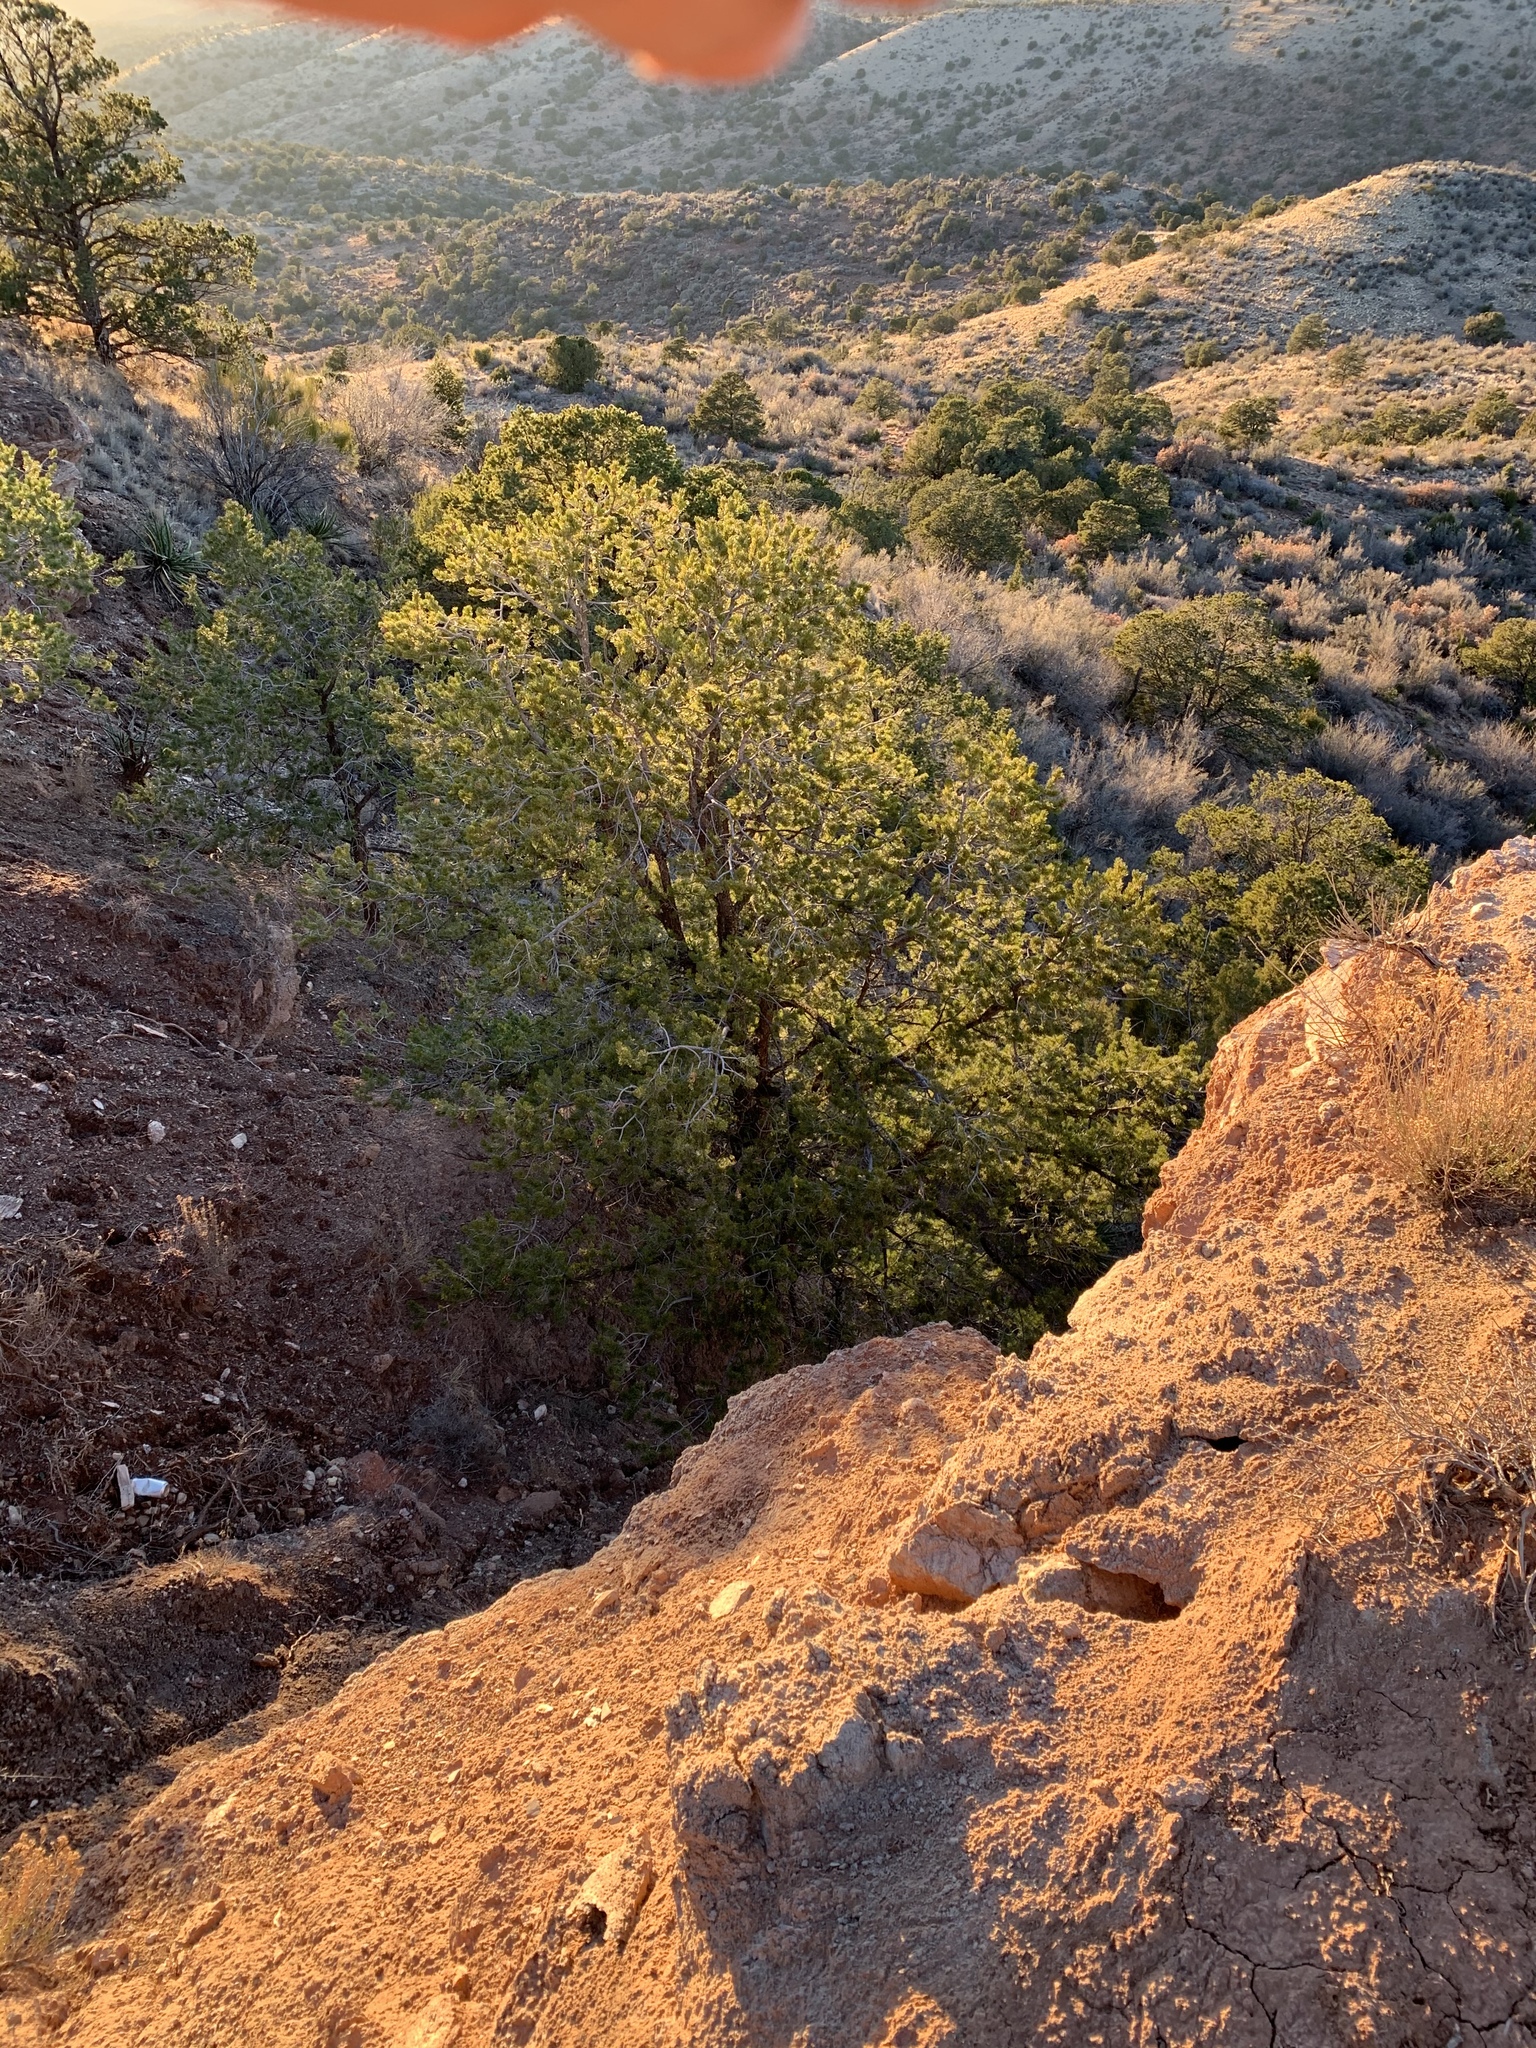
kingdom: Plantae
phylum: Tracheophyta
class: Pinopsida
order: Pinales
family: Pinaceae
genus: Pinus
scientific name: Pinus edulis
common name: Colorado pinyon
